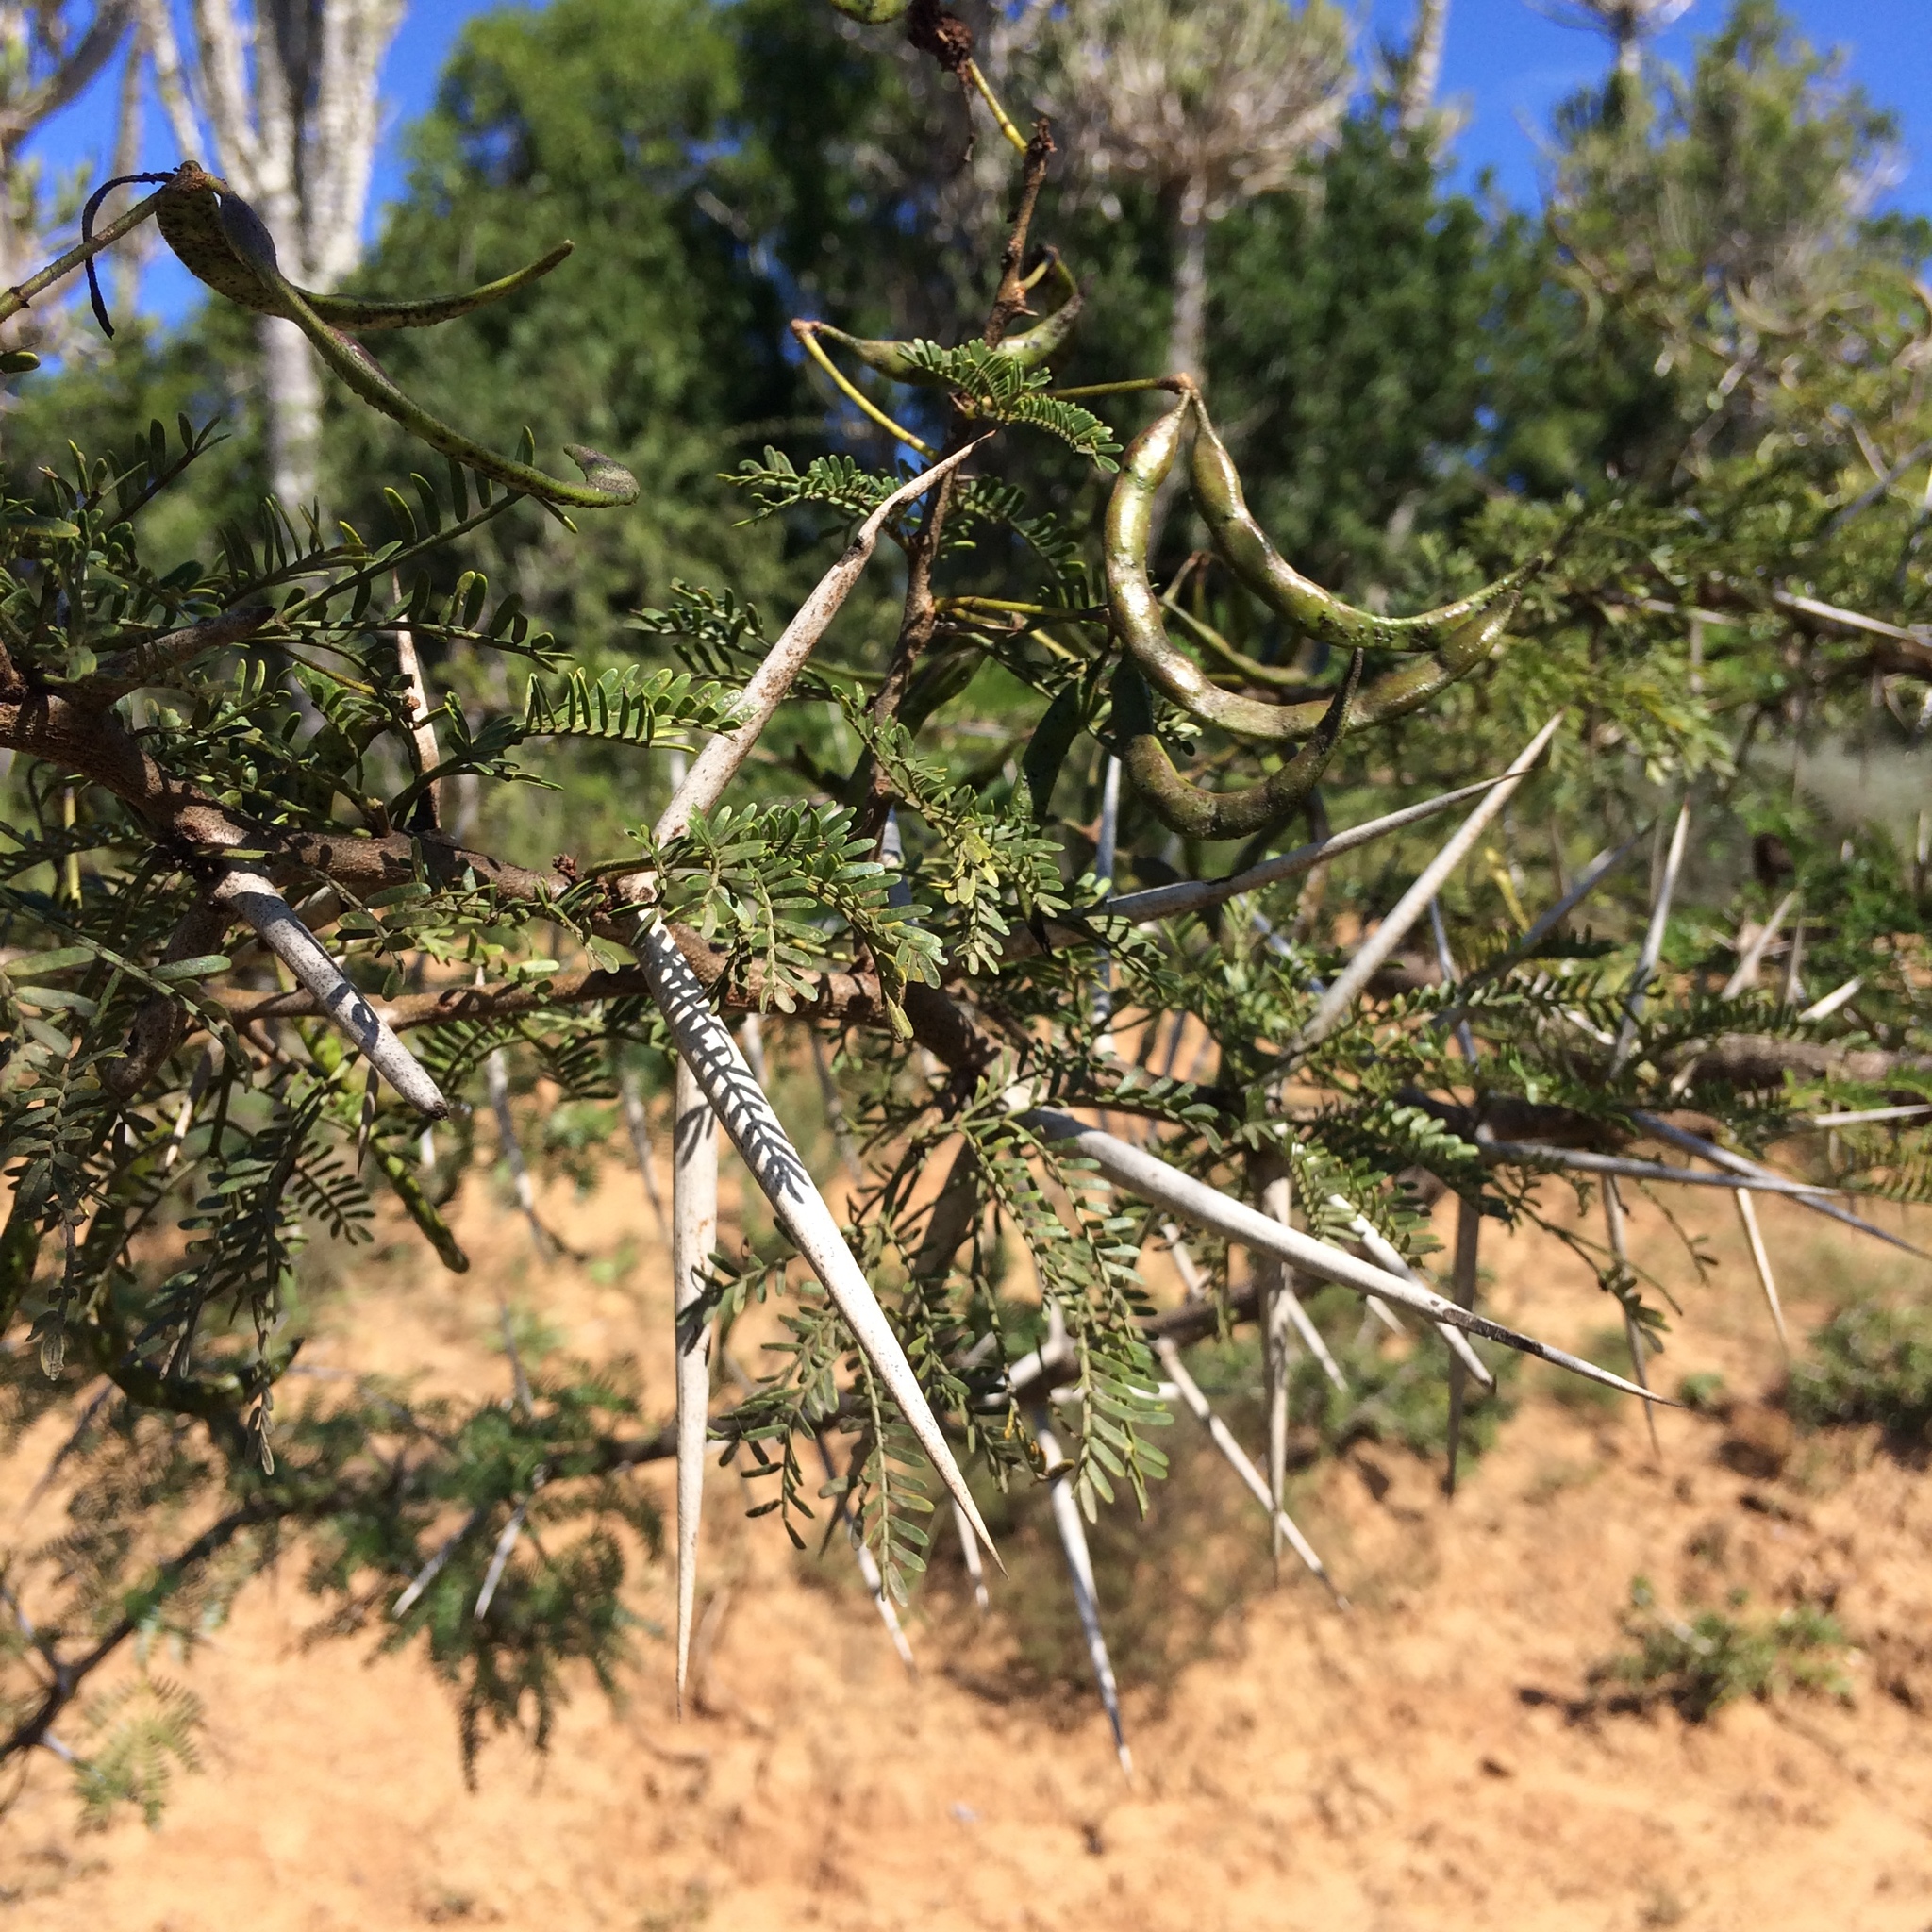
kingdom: Plantae
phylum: Tracheophyta
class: Magnoliopsida
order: Fabales
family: Fabaceae
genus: Vachellia
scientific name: Vachellia karroo
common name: Sweet thorn
